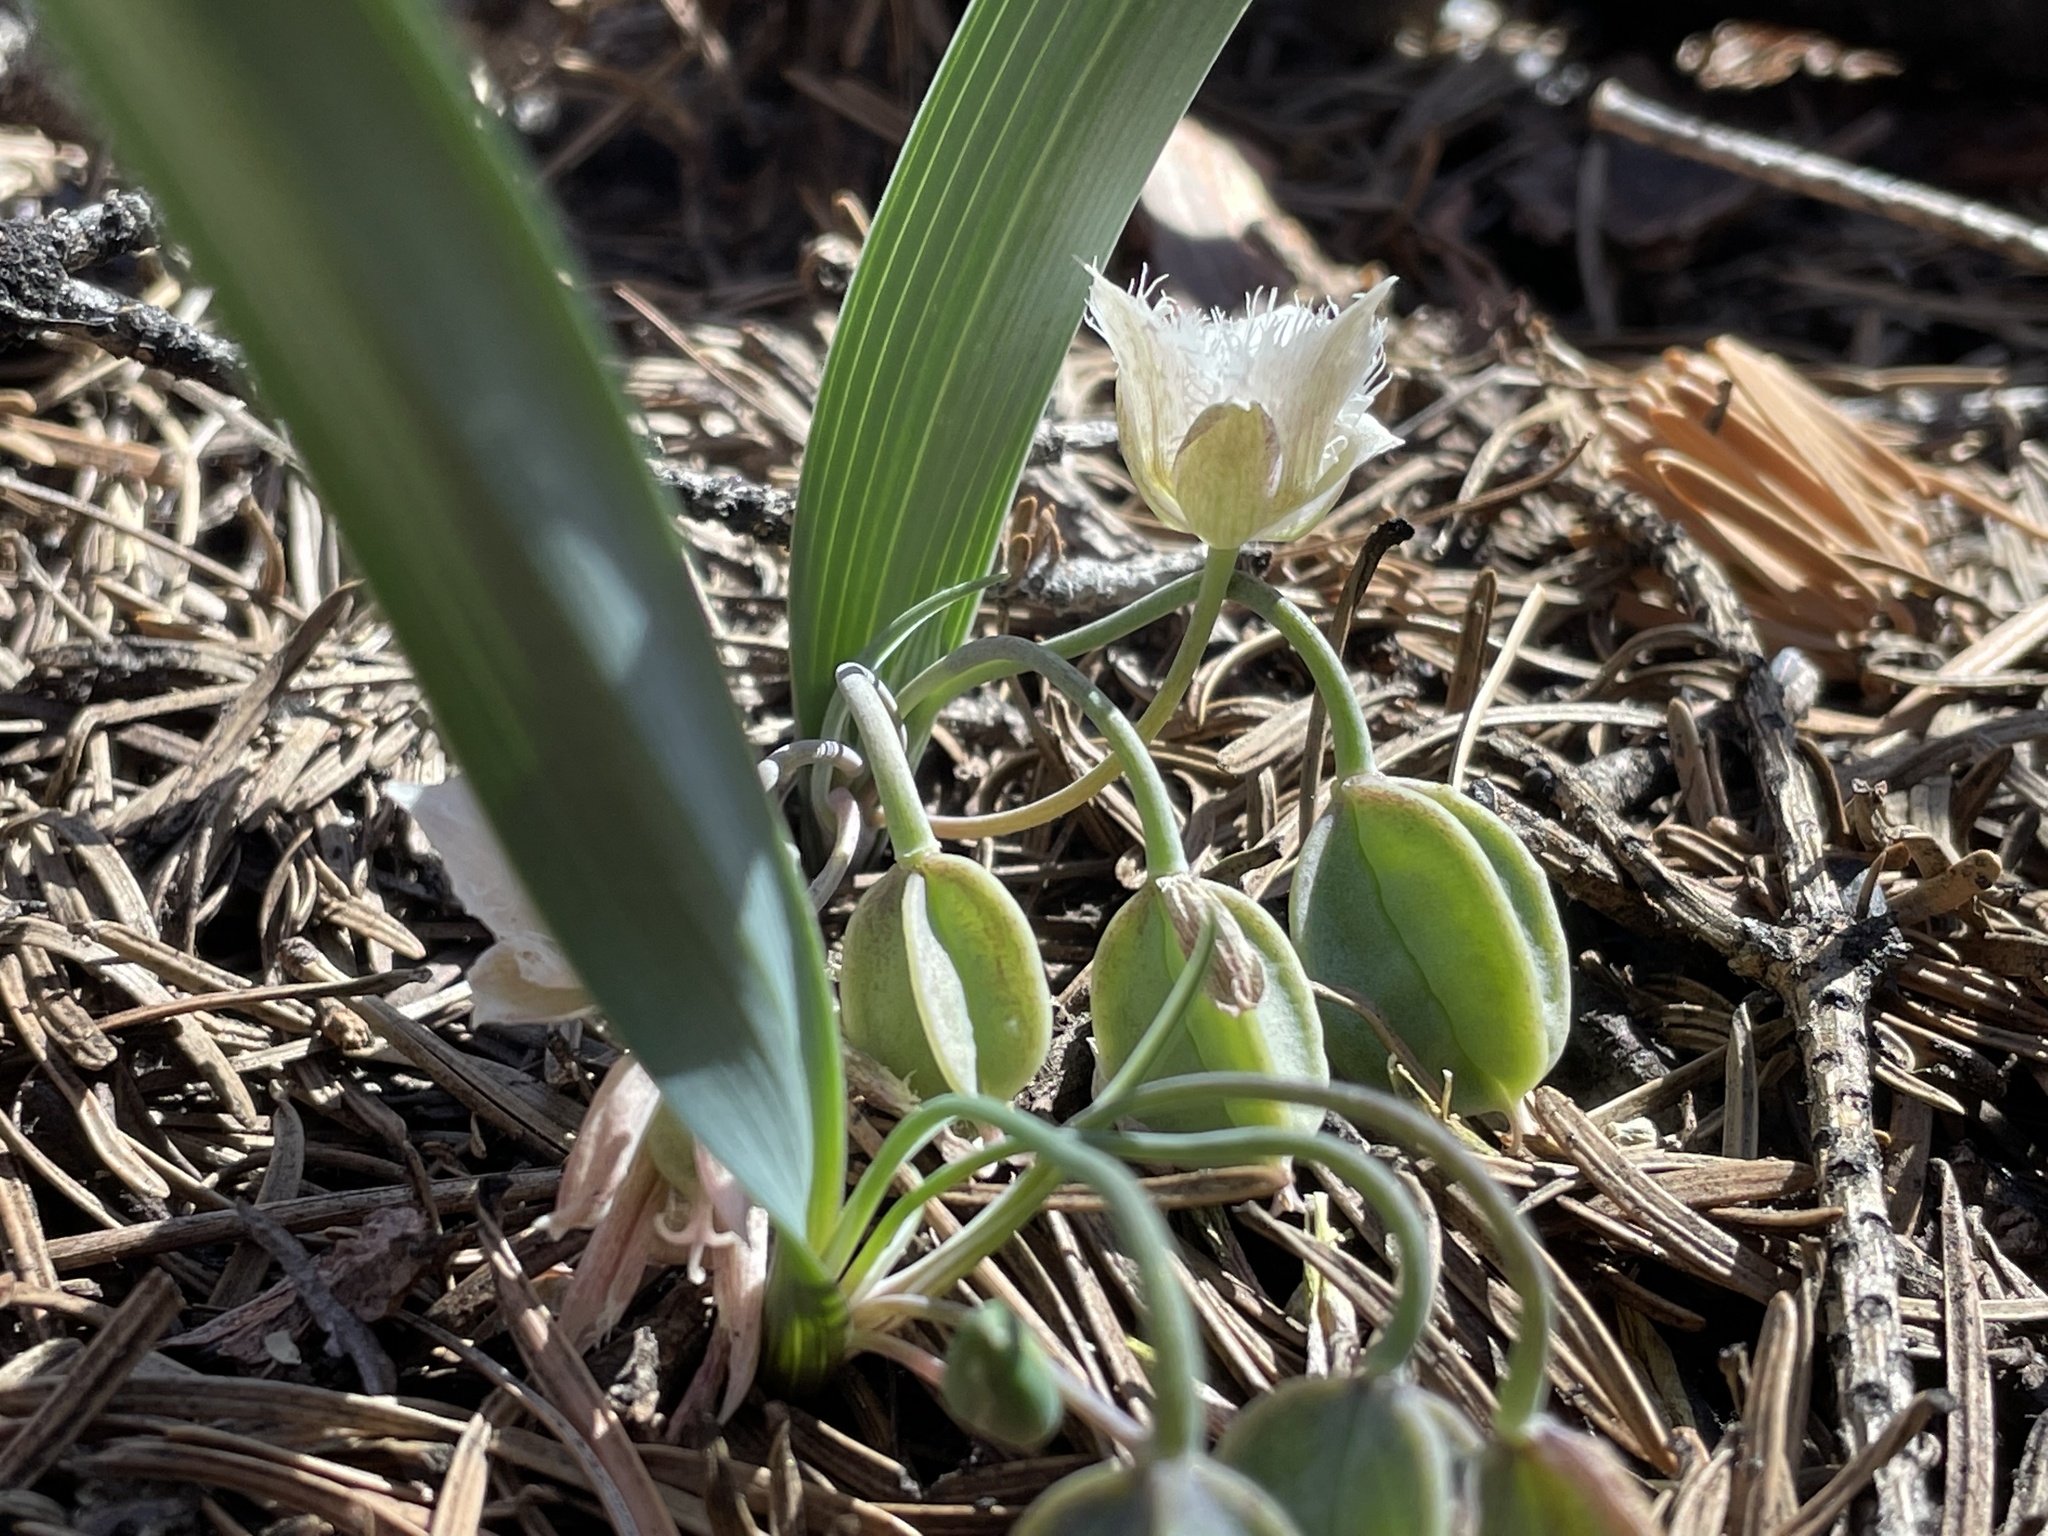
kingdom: Plantae
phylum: Tracheophyta
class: Liliopsida
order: Liliales
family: Liliaceae
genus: Calochortus
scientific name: Calochortus westonii
